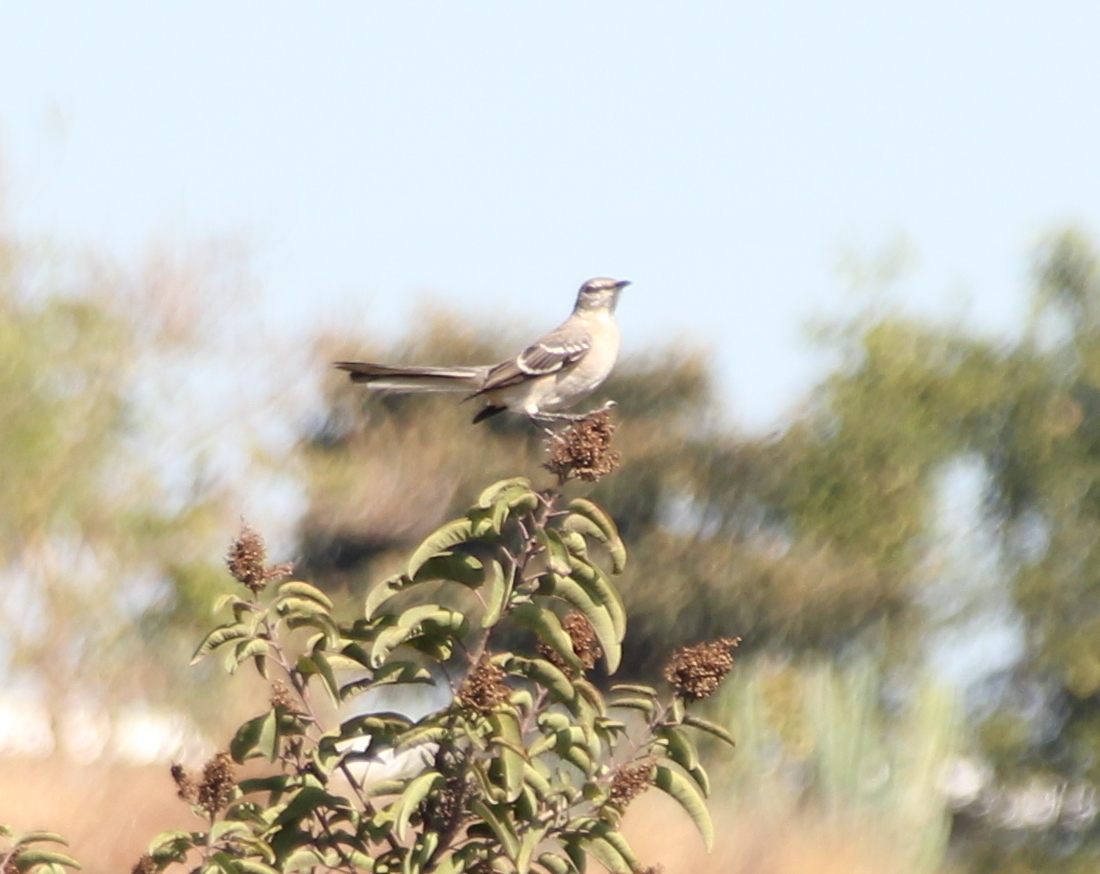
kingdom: Animalia
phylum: Chordata
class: Aves
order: Passeriformes
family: Mimidae
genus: Mimus
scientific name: Mimus polyglottos
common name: Northern mockingbird
